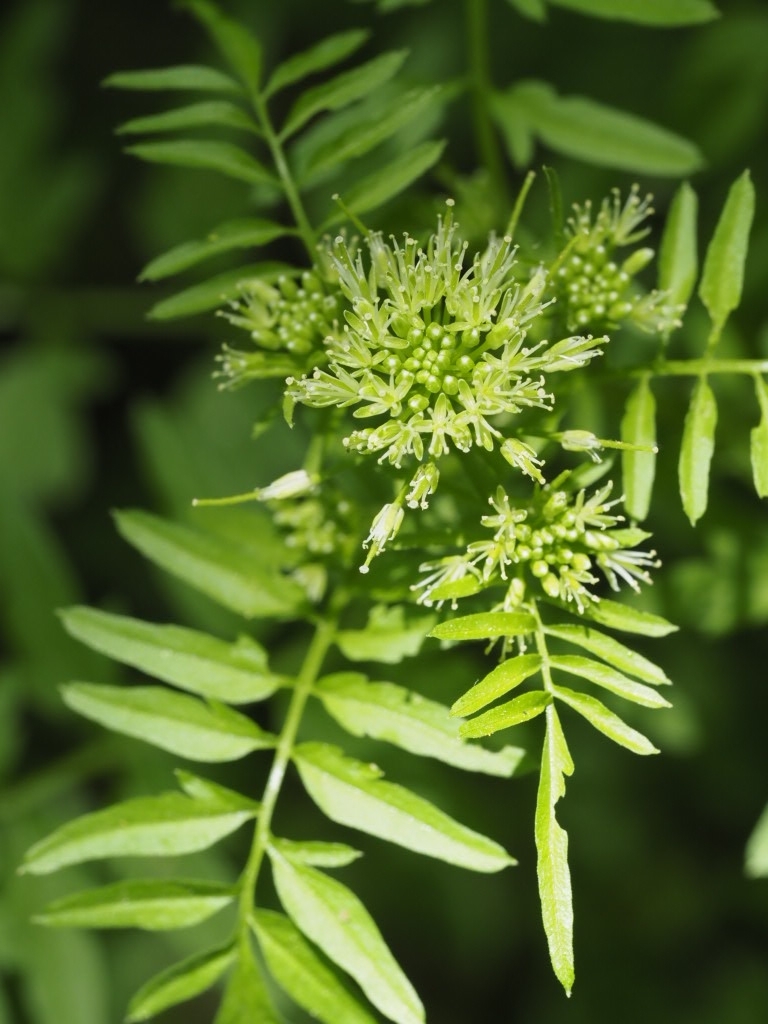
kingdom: Plantae
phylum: Tracheophyta
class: Magnoliopsida
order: Brassicales
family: Brassicaceae
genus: Cardamine
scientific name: Cardamine impatiens
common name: Narrow-leaved bitter-cress
